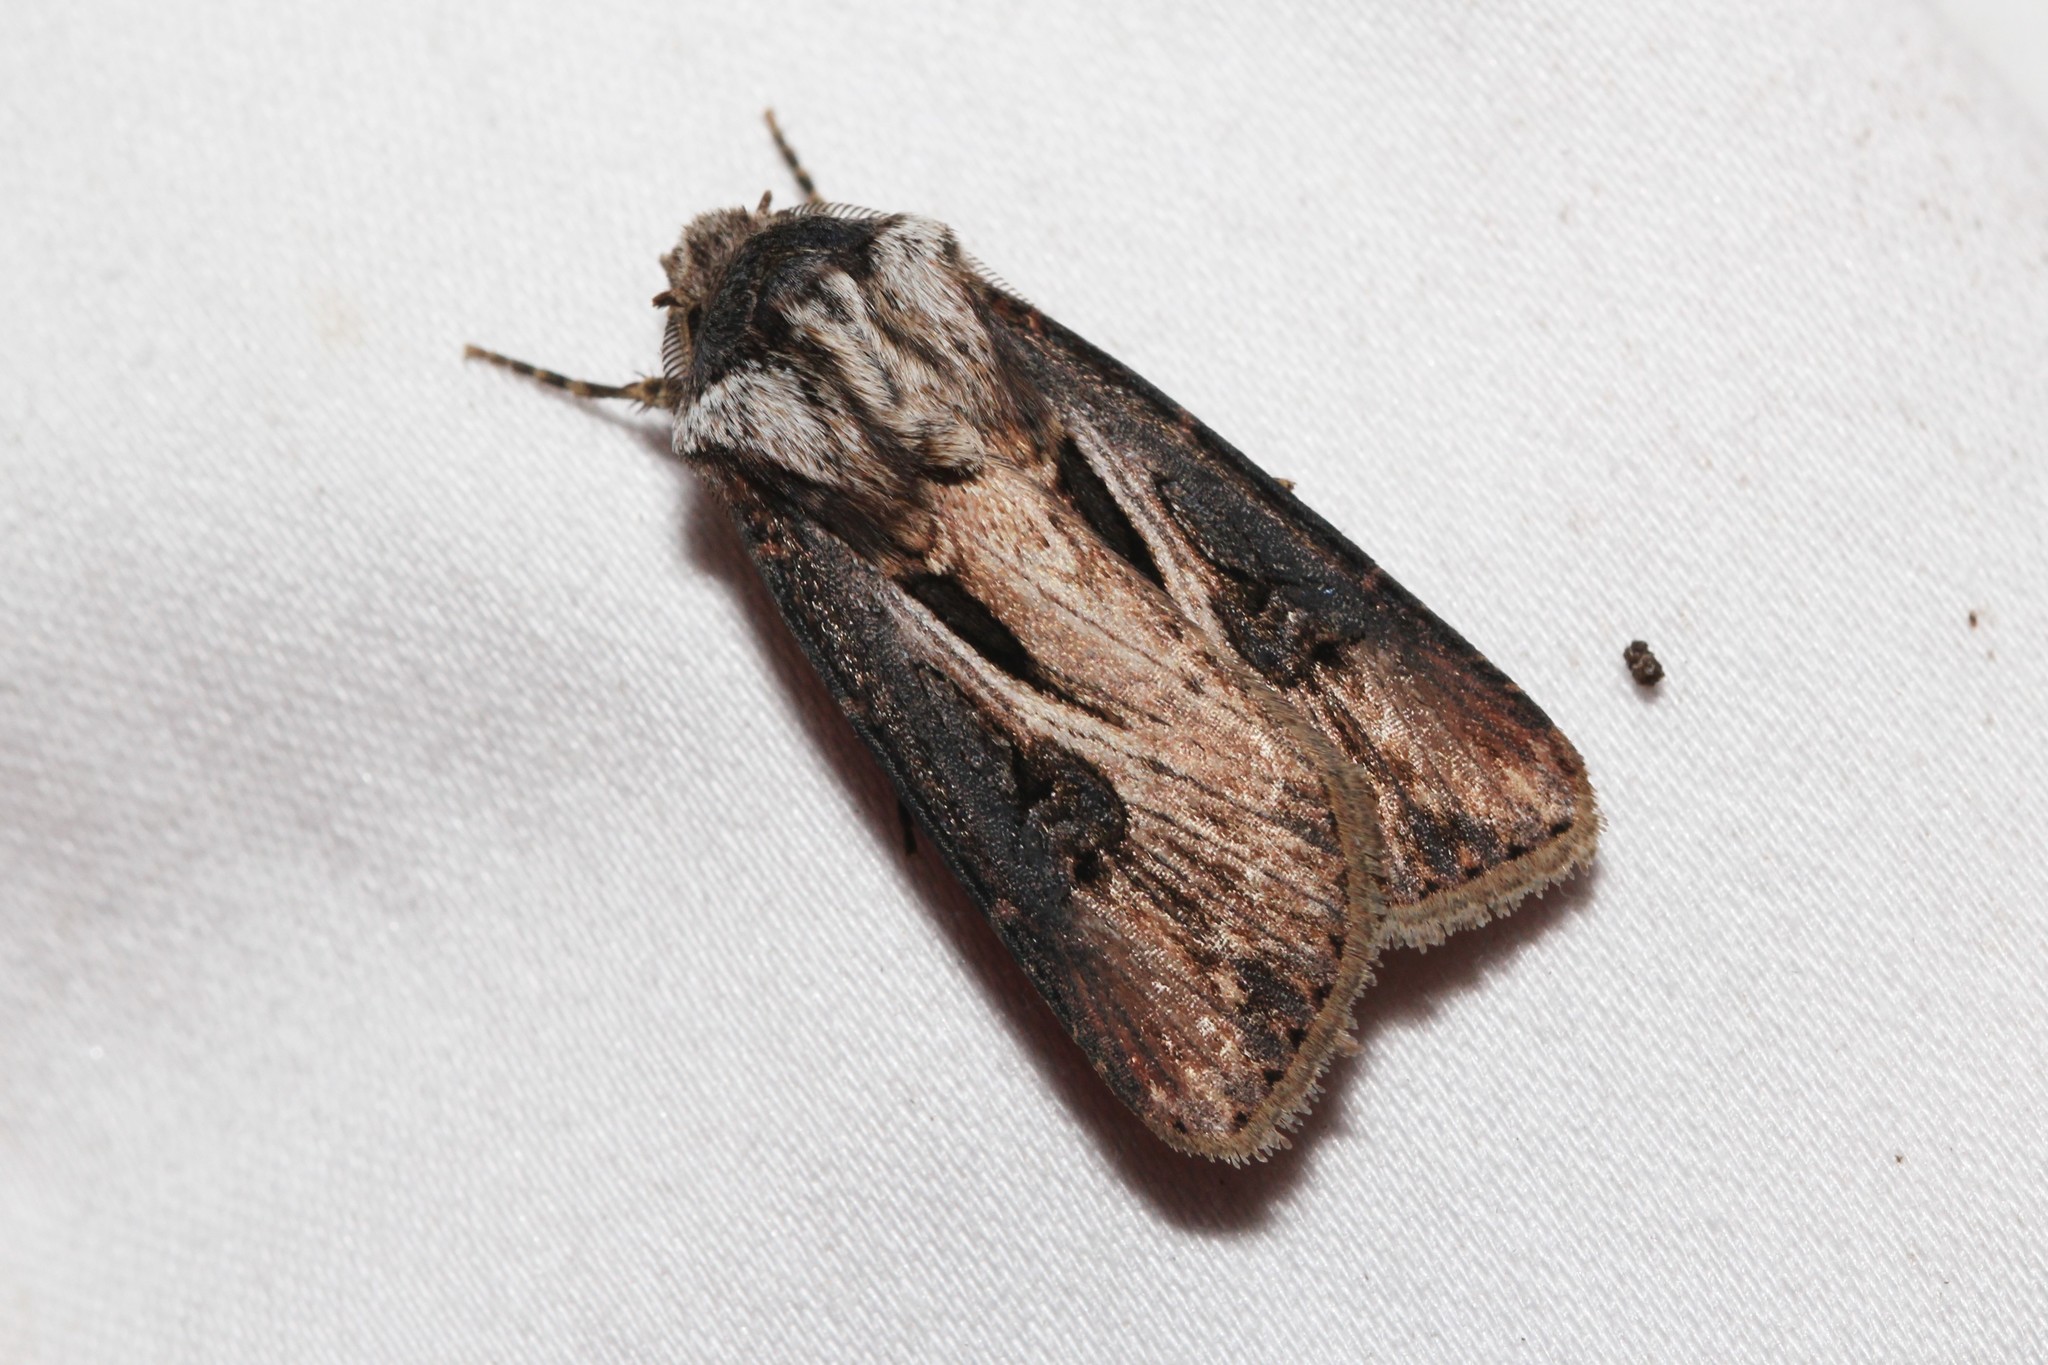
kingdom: Animalia
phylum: Arthropoda
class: Insecta
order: Lepidoptera
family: Noctuidae
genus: Agrotis
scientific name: Agrotis venerabilis
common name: Venerable dart
